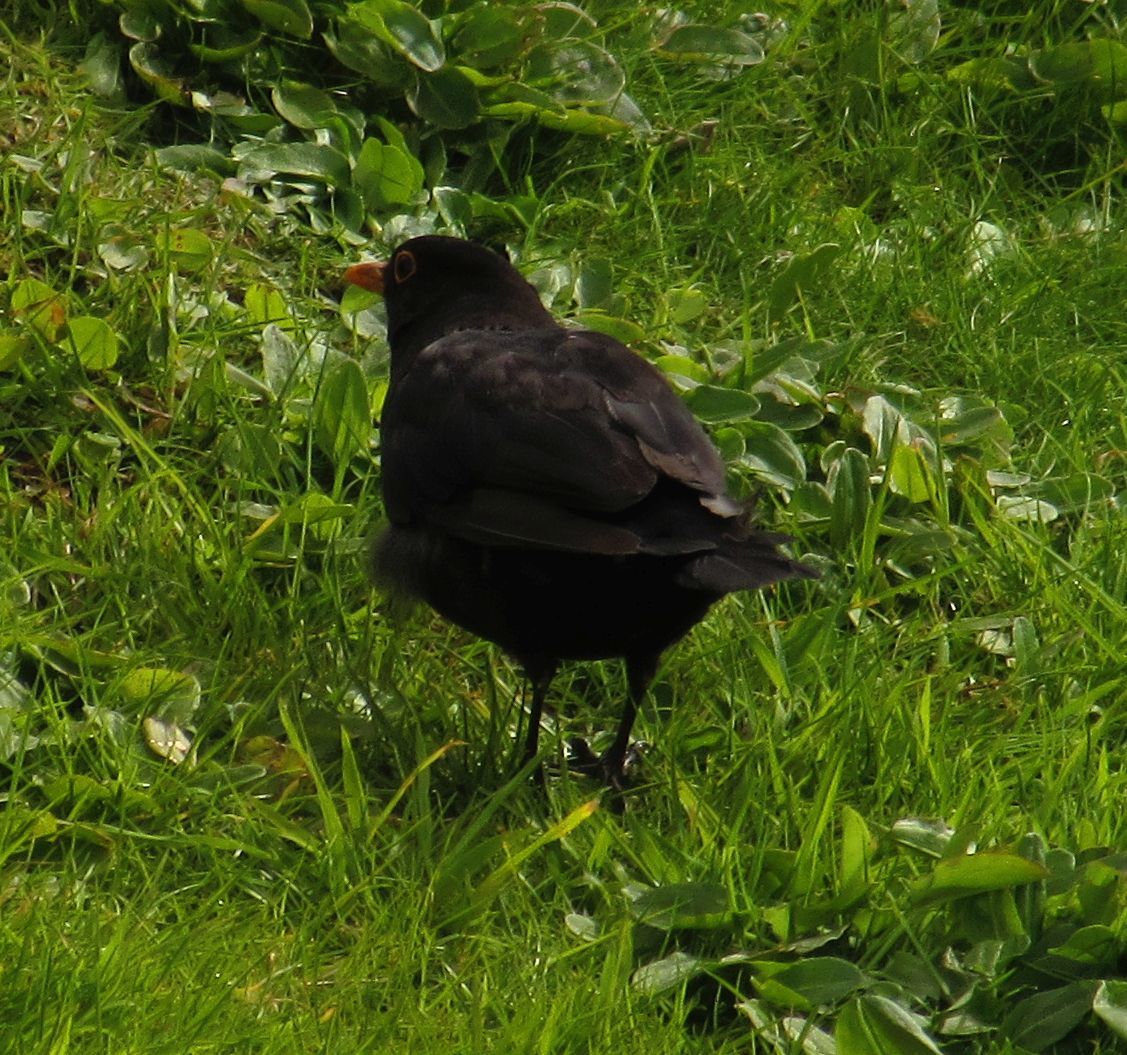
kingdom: Animalia
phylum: Chordata
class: Aves
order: Passeriformes
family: Turdidae
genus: Turdus
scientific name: Turdus merula
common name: Common blackbird
